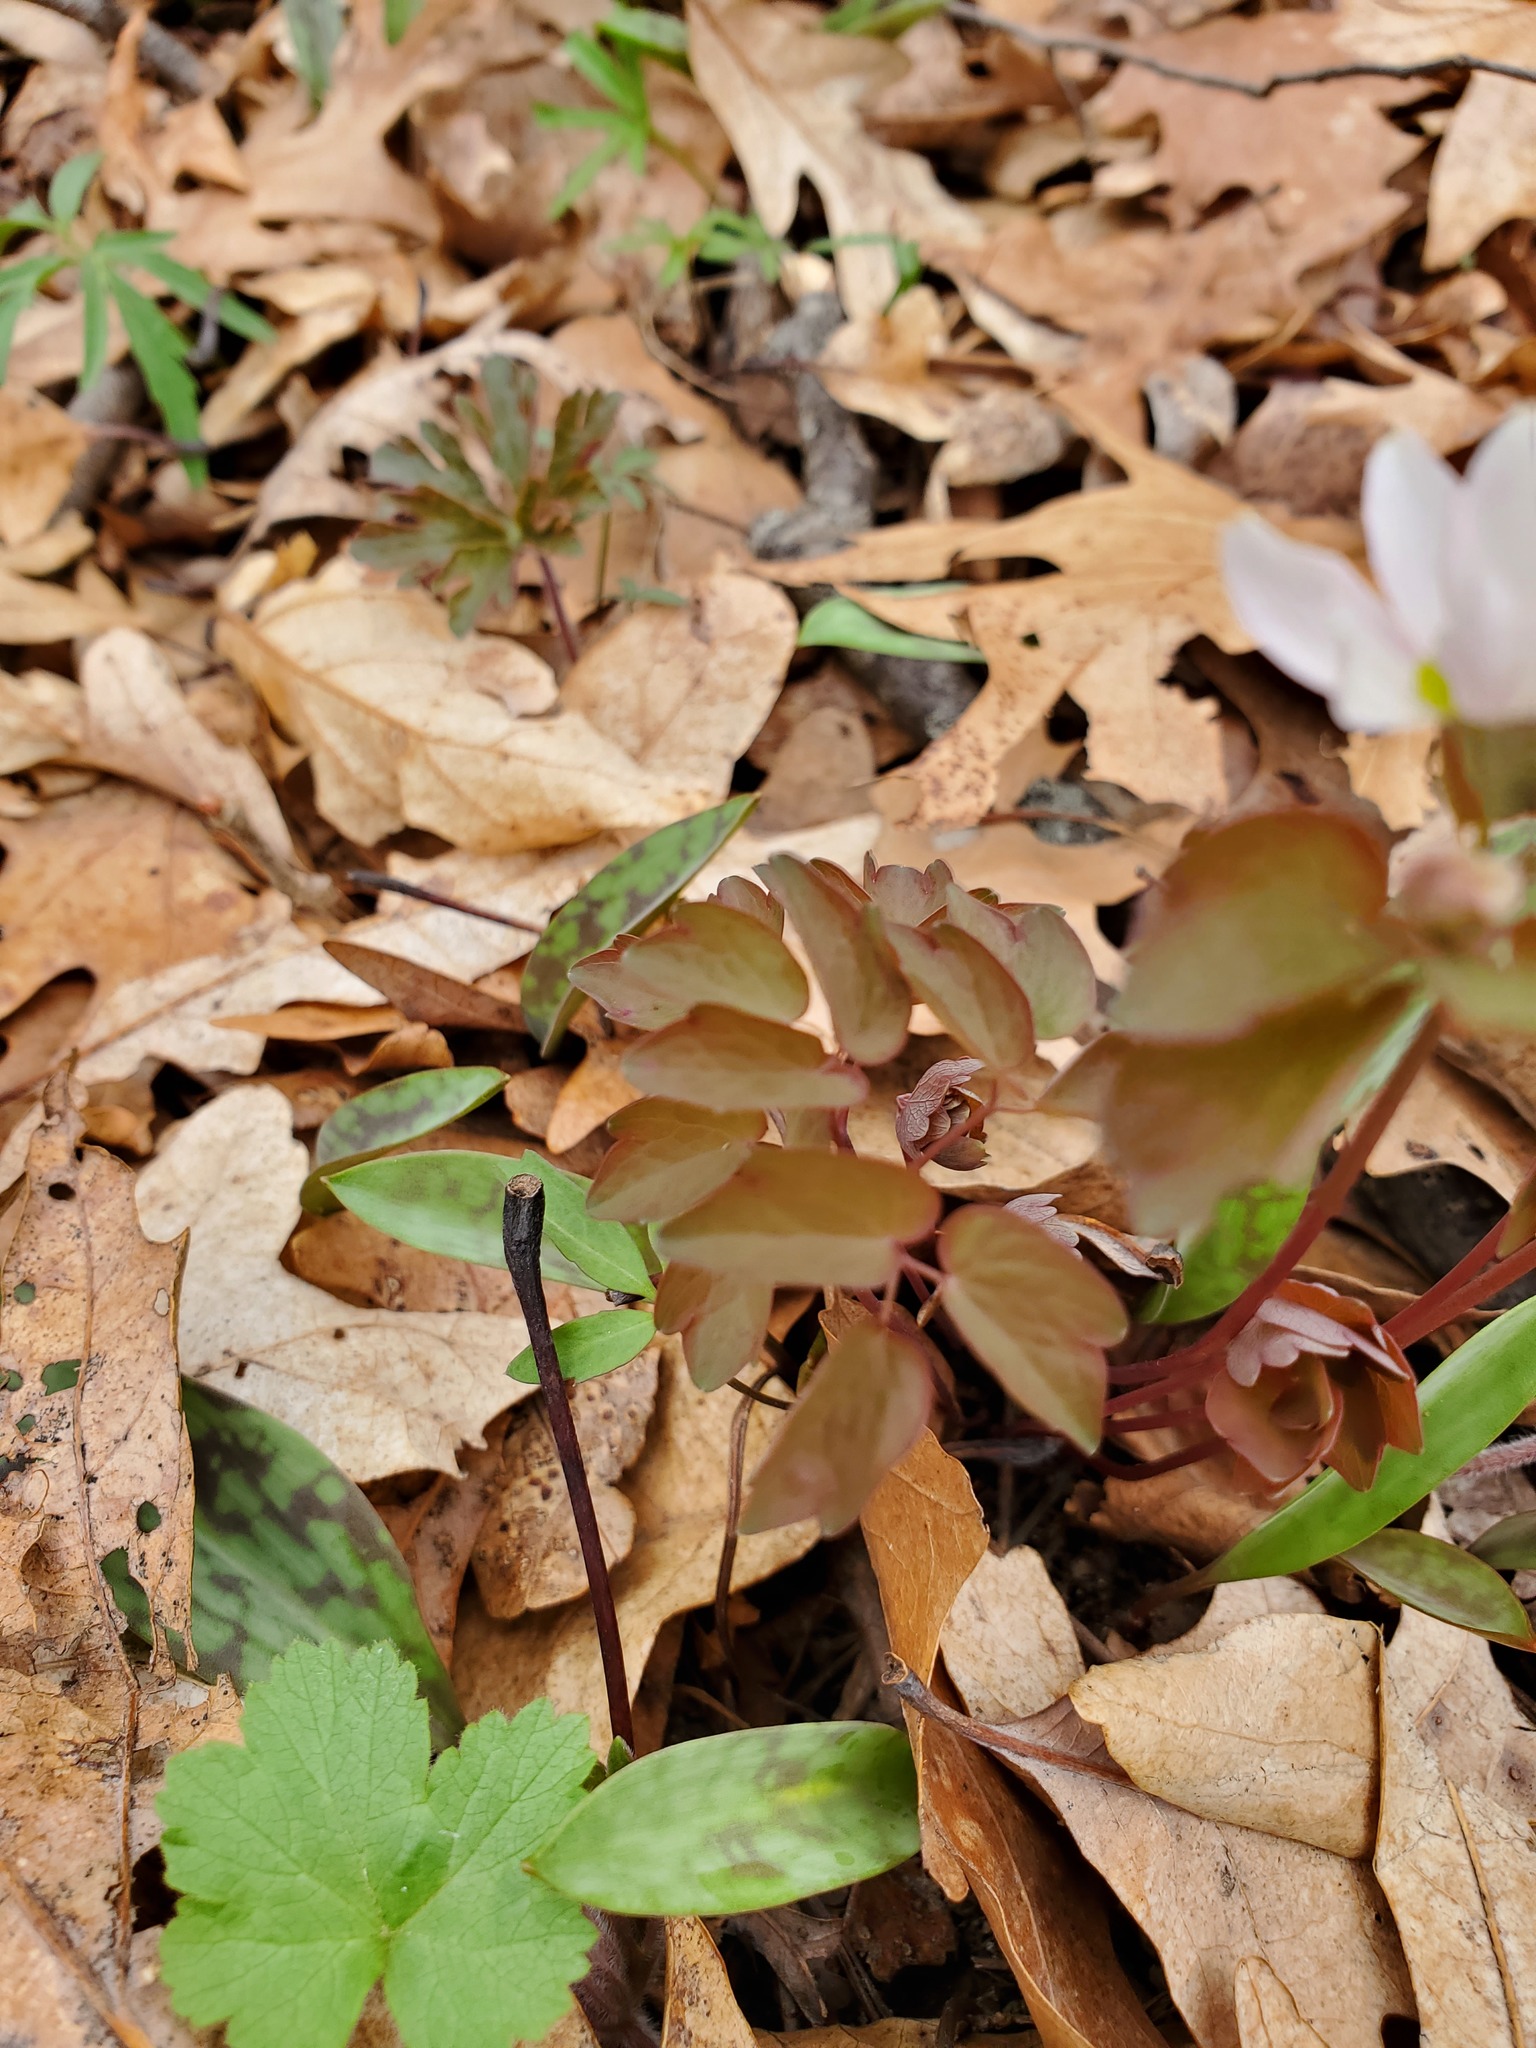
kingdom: Plantae
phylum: Tracheophyta
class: Magnoliopsida
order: Ranunculales
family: Ranunculaceae
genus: Thalictrum
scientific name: Thalictrum thalictroides
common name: Rue-anemone
